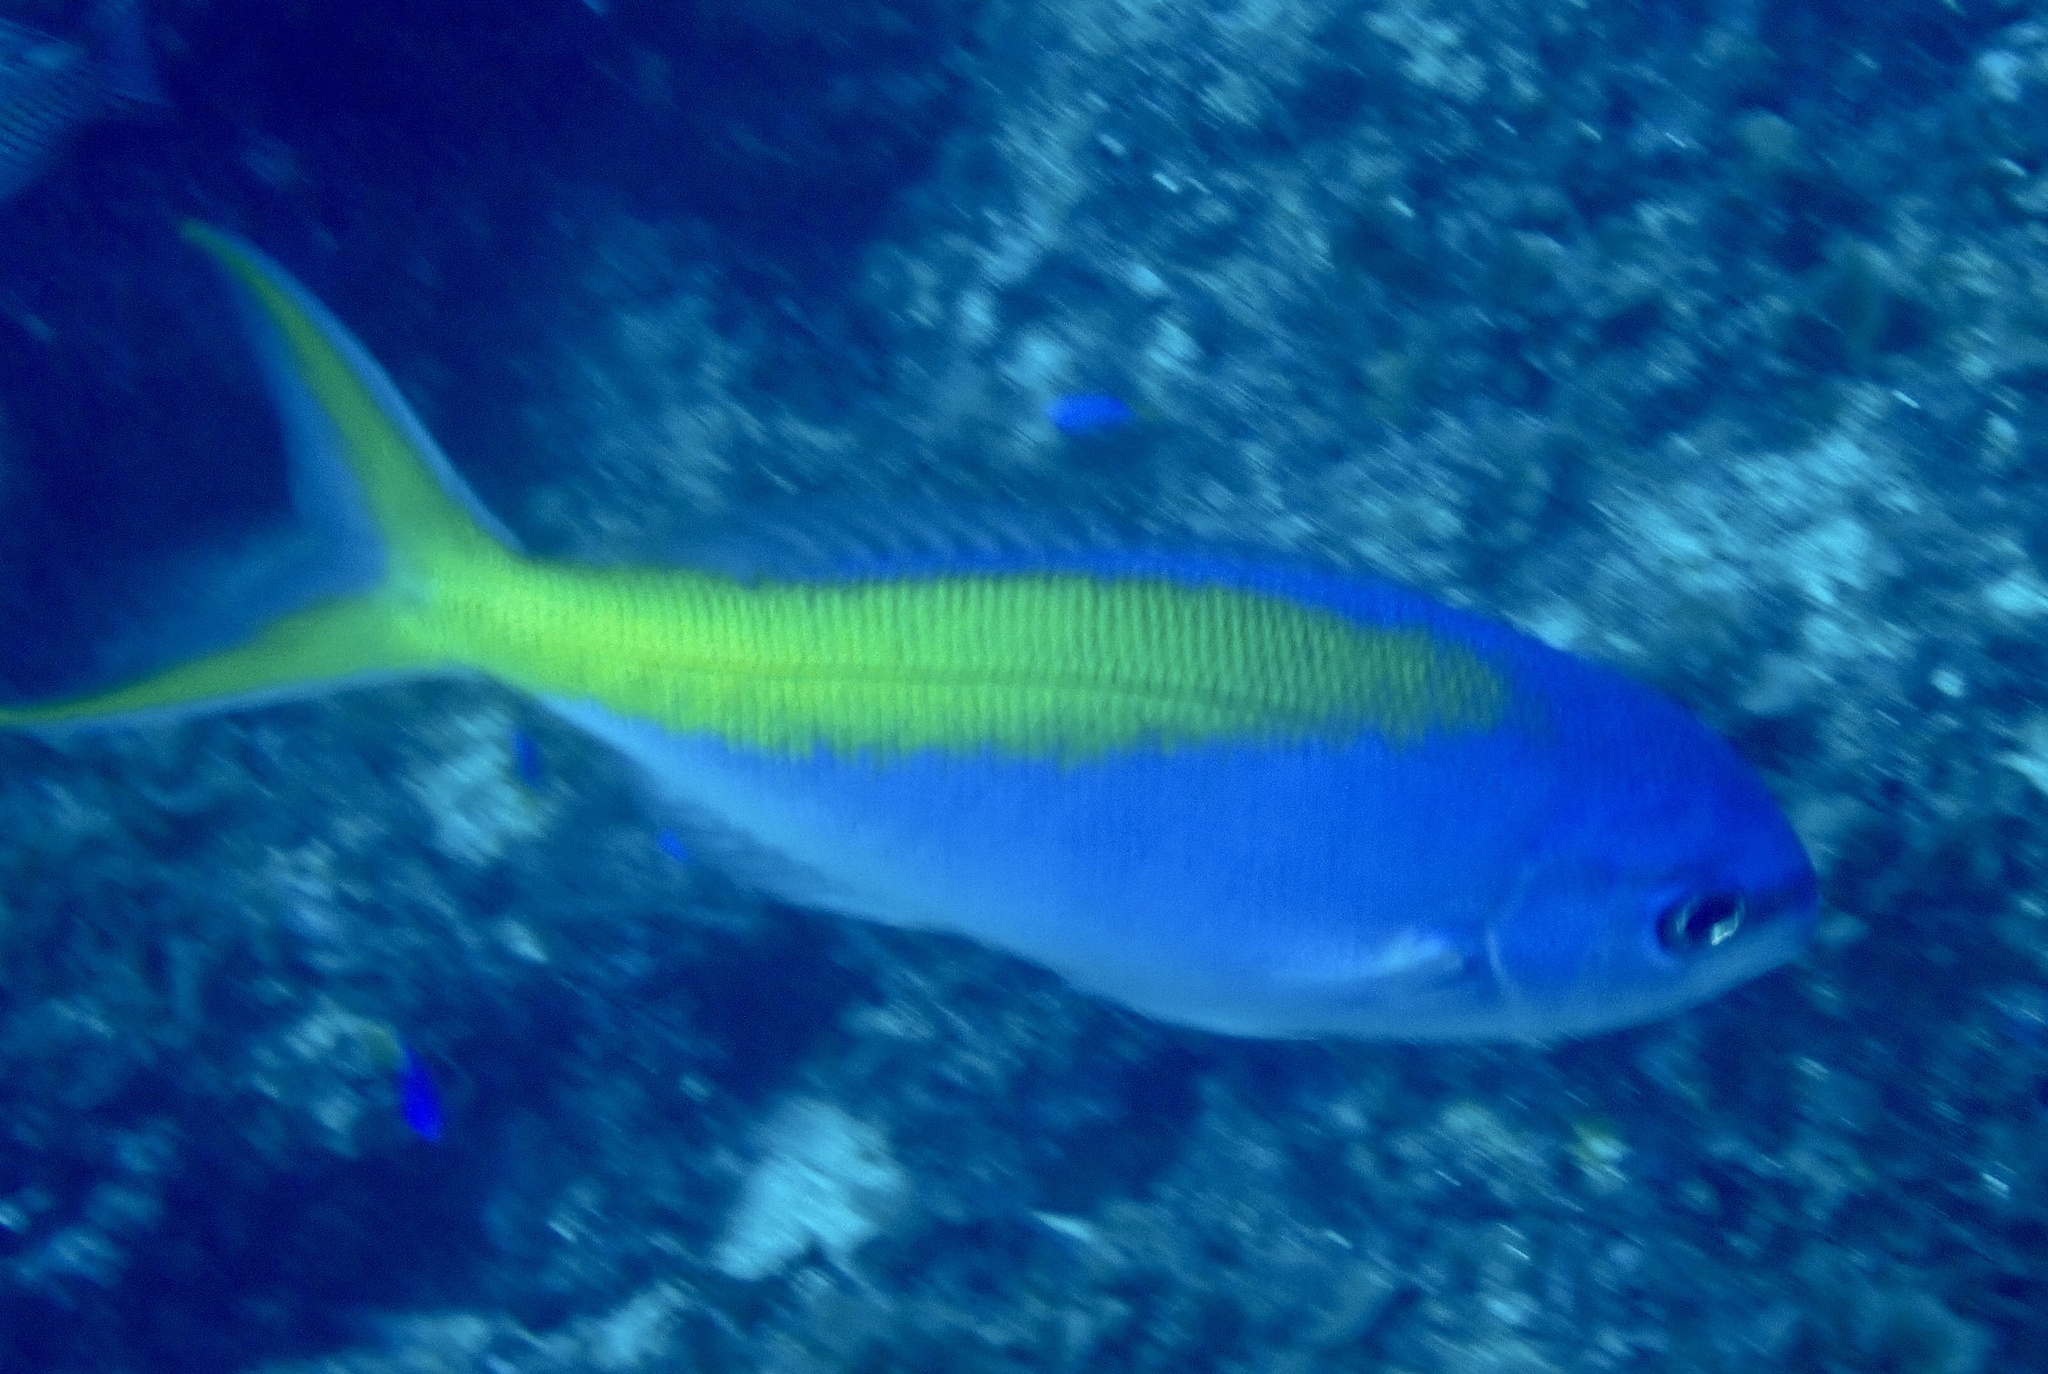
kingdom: Animalia
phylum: Chordata
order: Perciformes
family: Lutjanidae
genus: Paracaesio
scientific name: Paracaesio xanthura
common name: Yellowtail blue snapper
